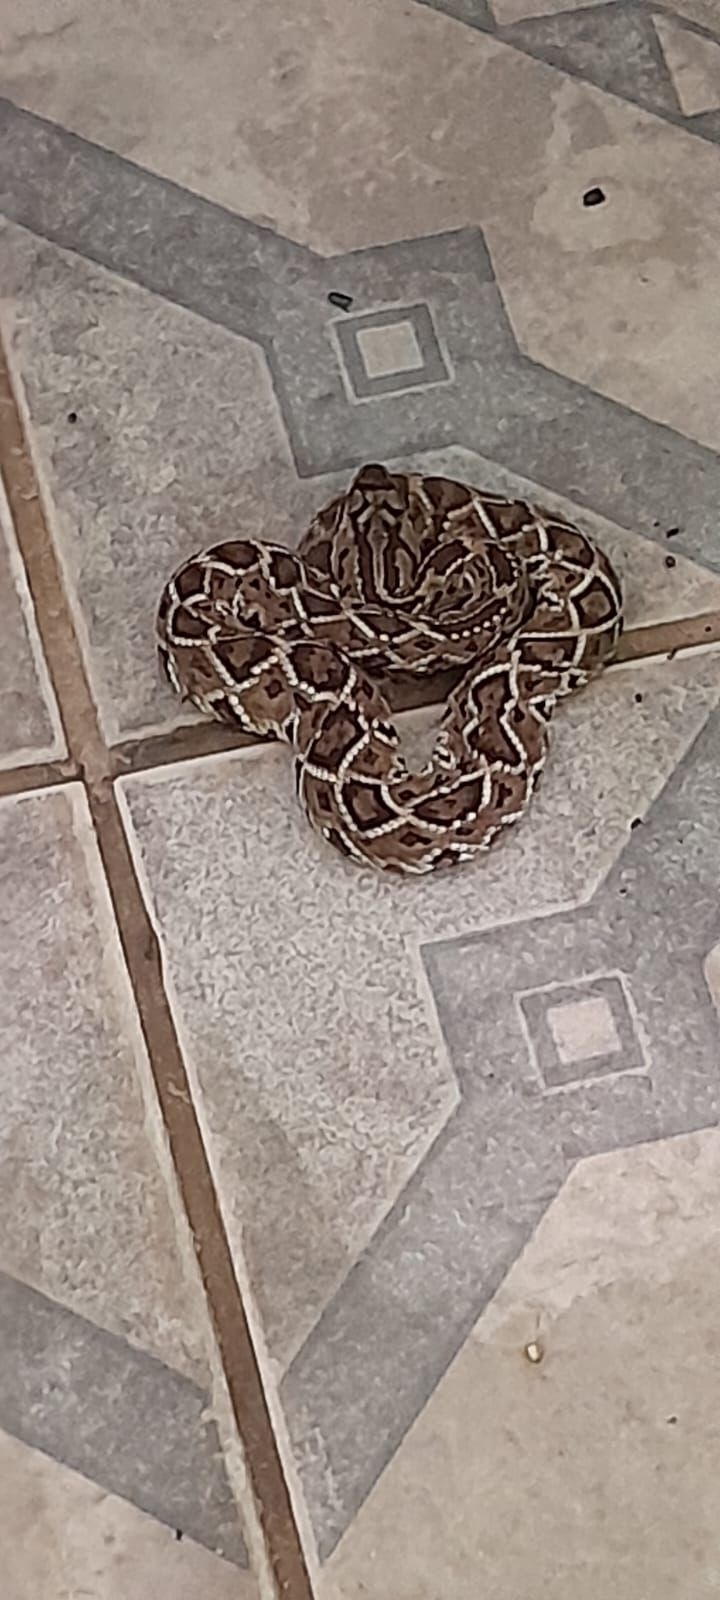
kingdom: Animalia
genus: Crotalus
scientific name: Crotalus durissus
